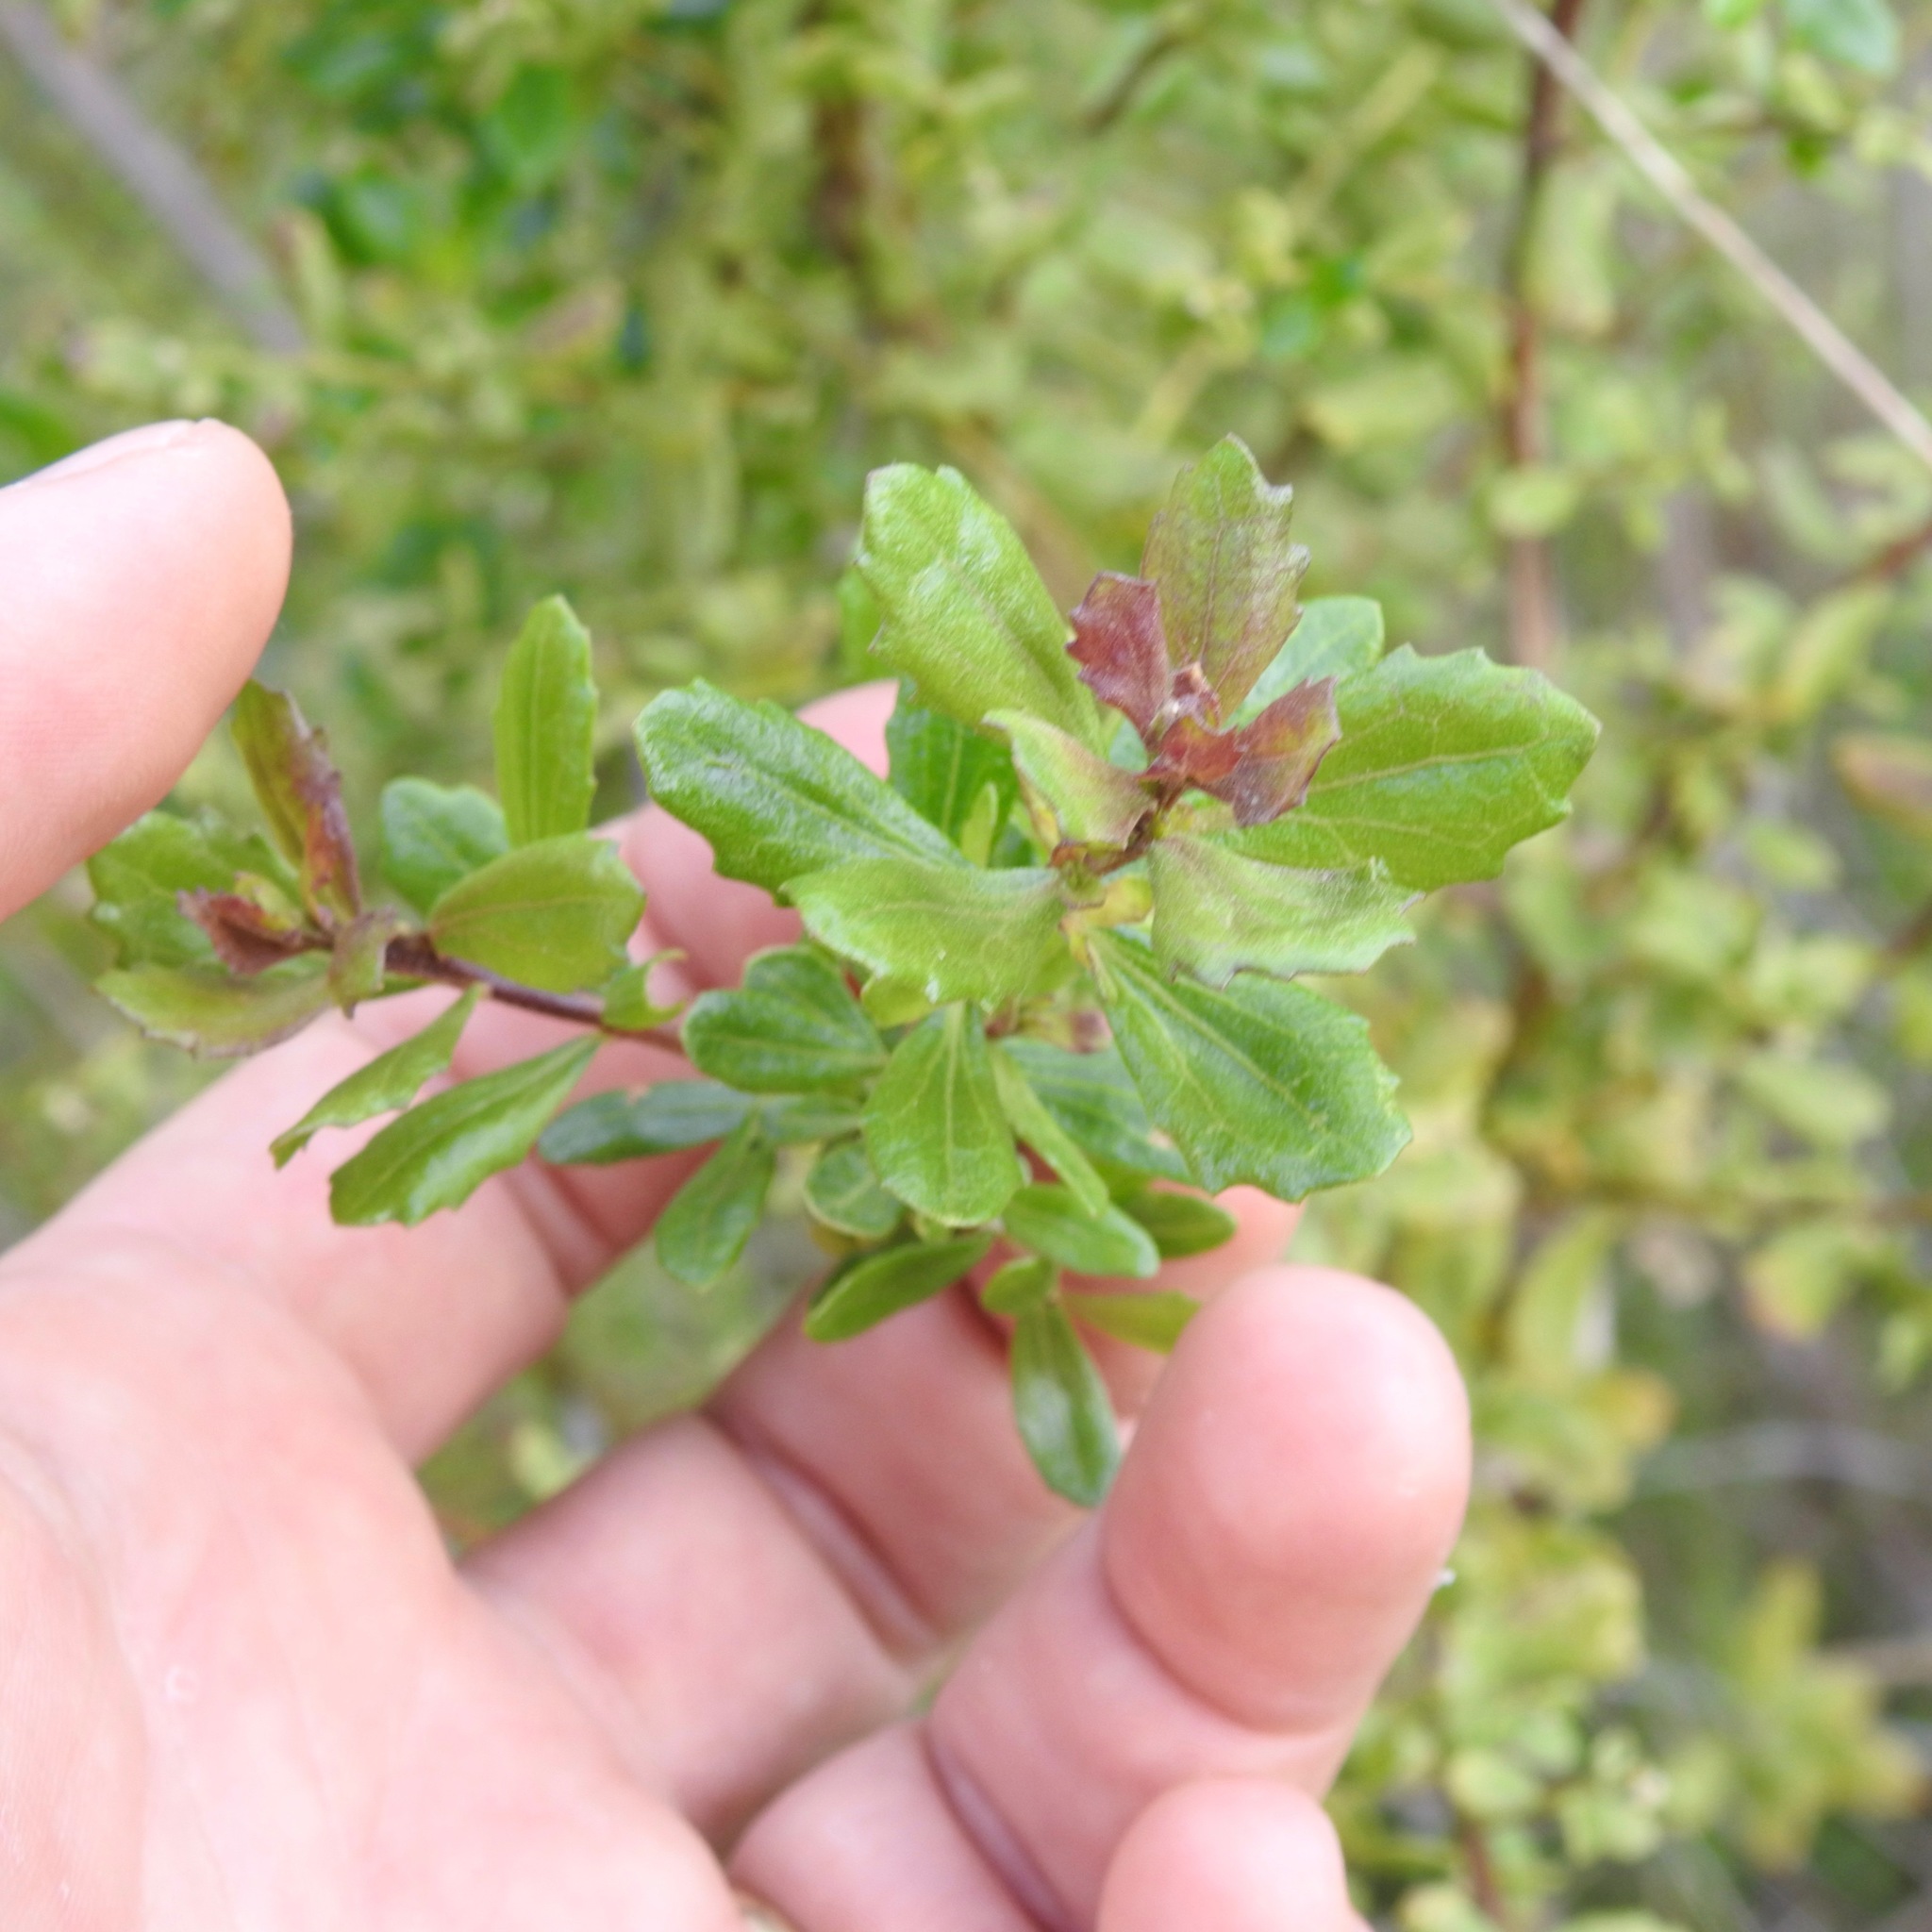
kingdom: Plantae
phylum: Tracheophyta
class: Magnoliopsida
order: Asterales
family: Asteraceae
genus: Baccharis
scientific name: Baccharis pilularis
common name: Coyotebrush
